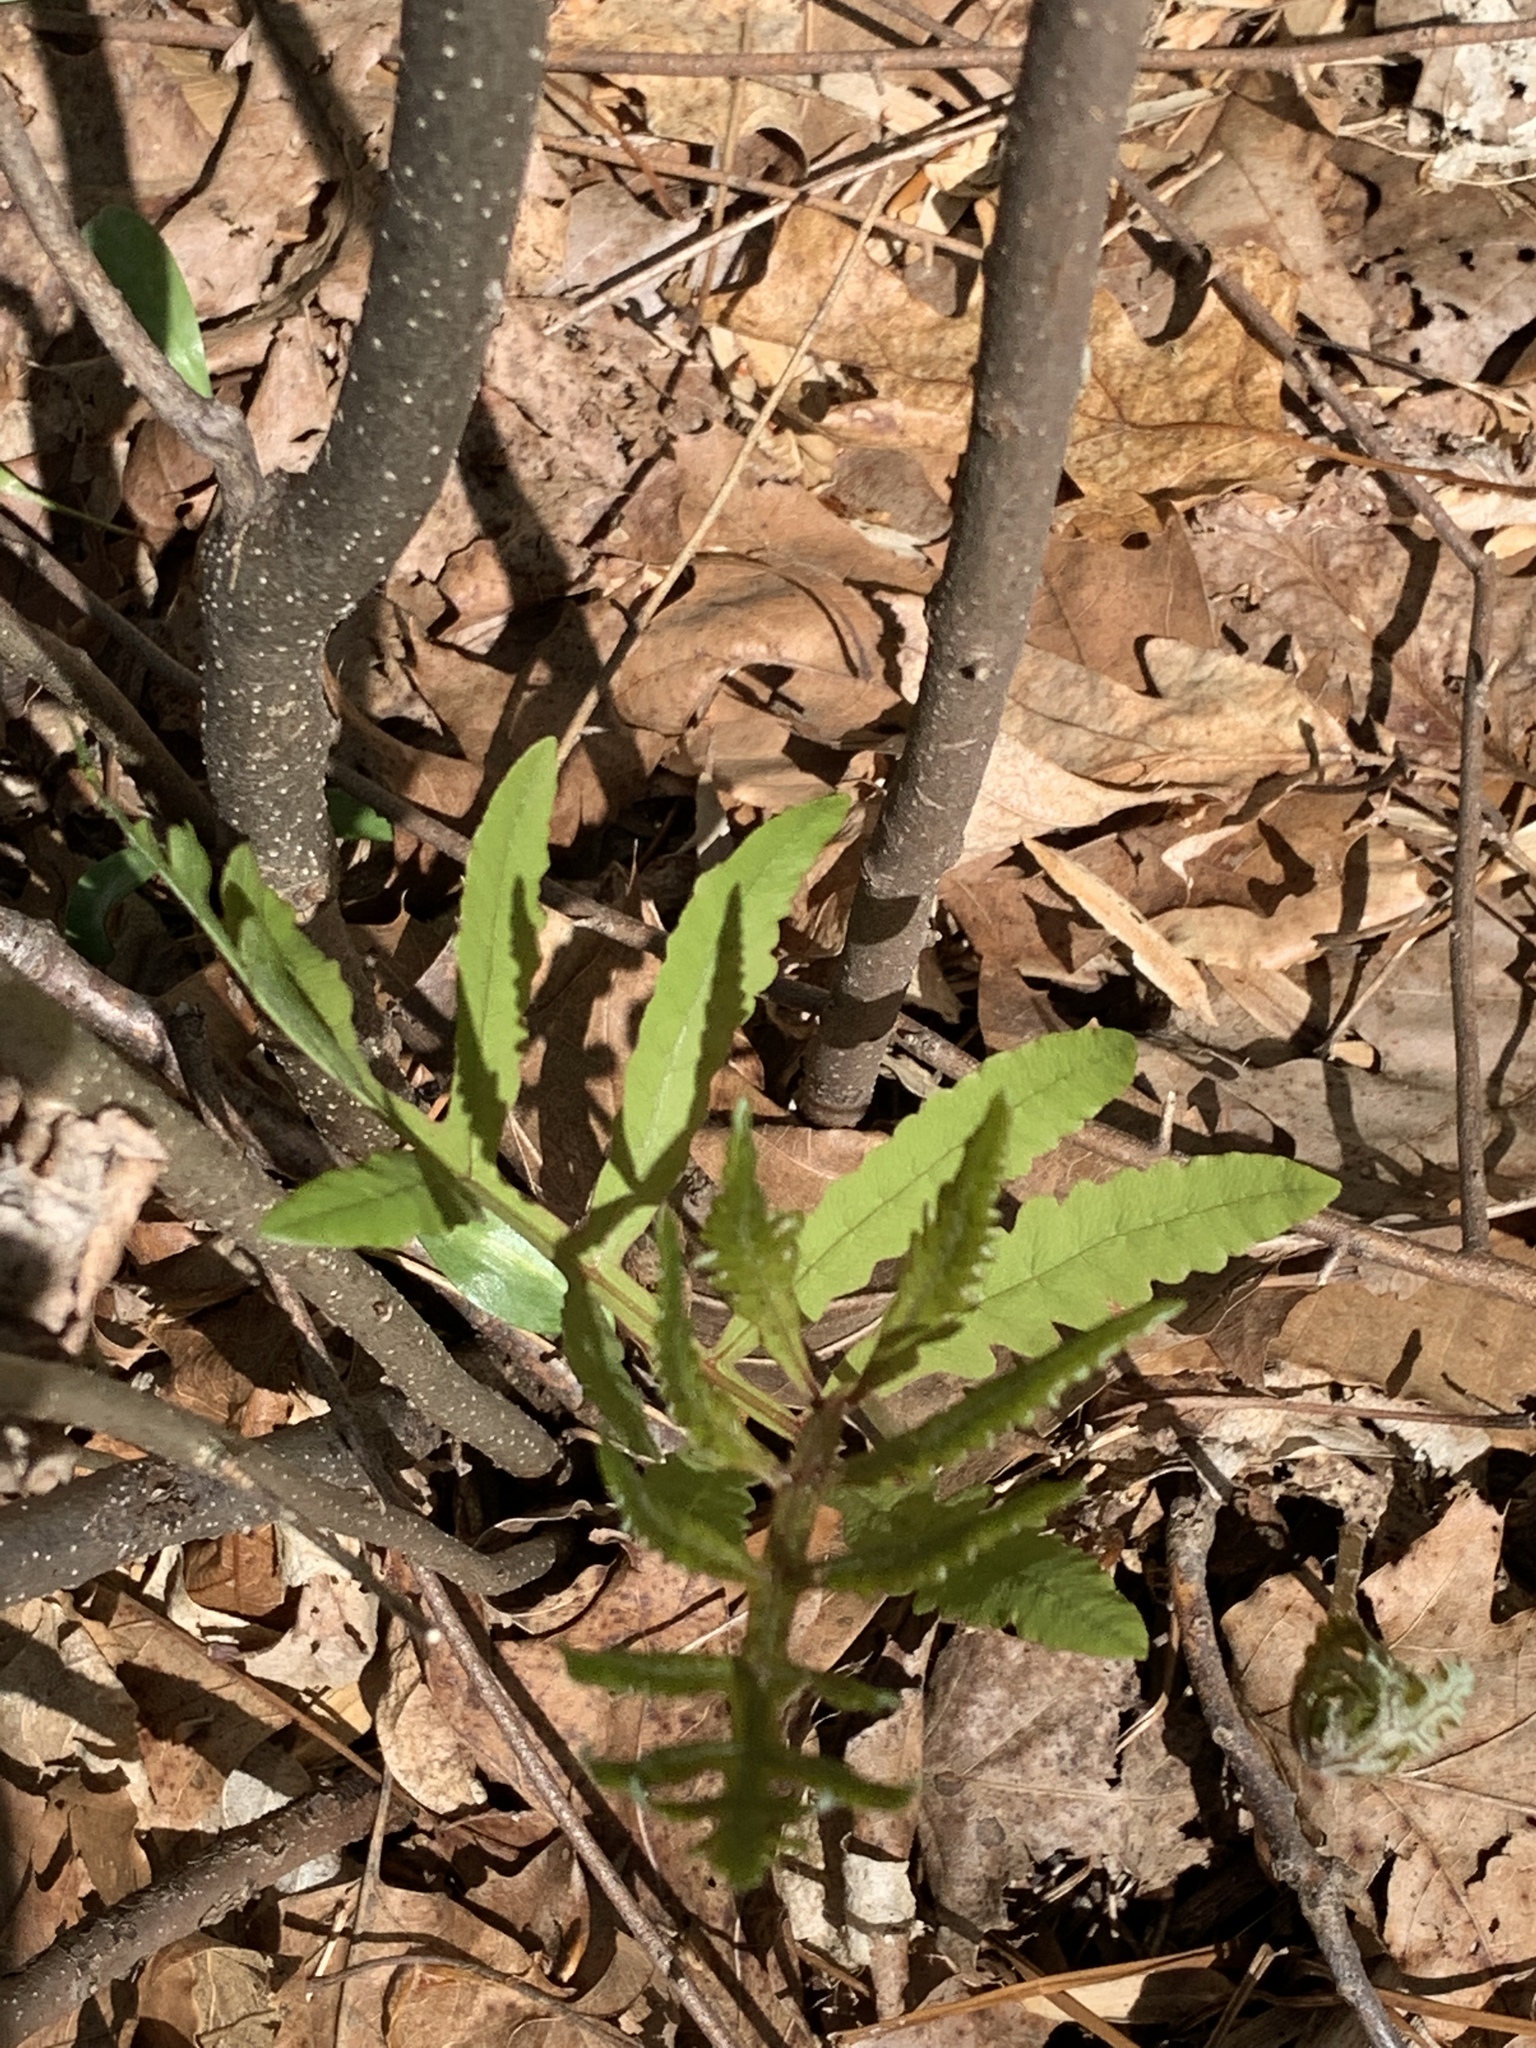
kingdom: Plantae
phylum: Tracheophyta
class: Polypodiopsida
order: Polypodiales
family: Onocleaceae
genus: Onoclea
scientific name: Onoclea sensibilis
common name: Sensitive fern
